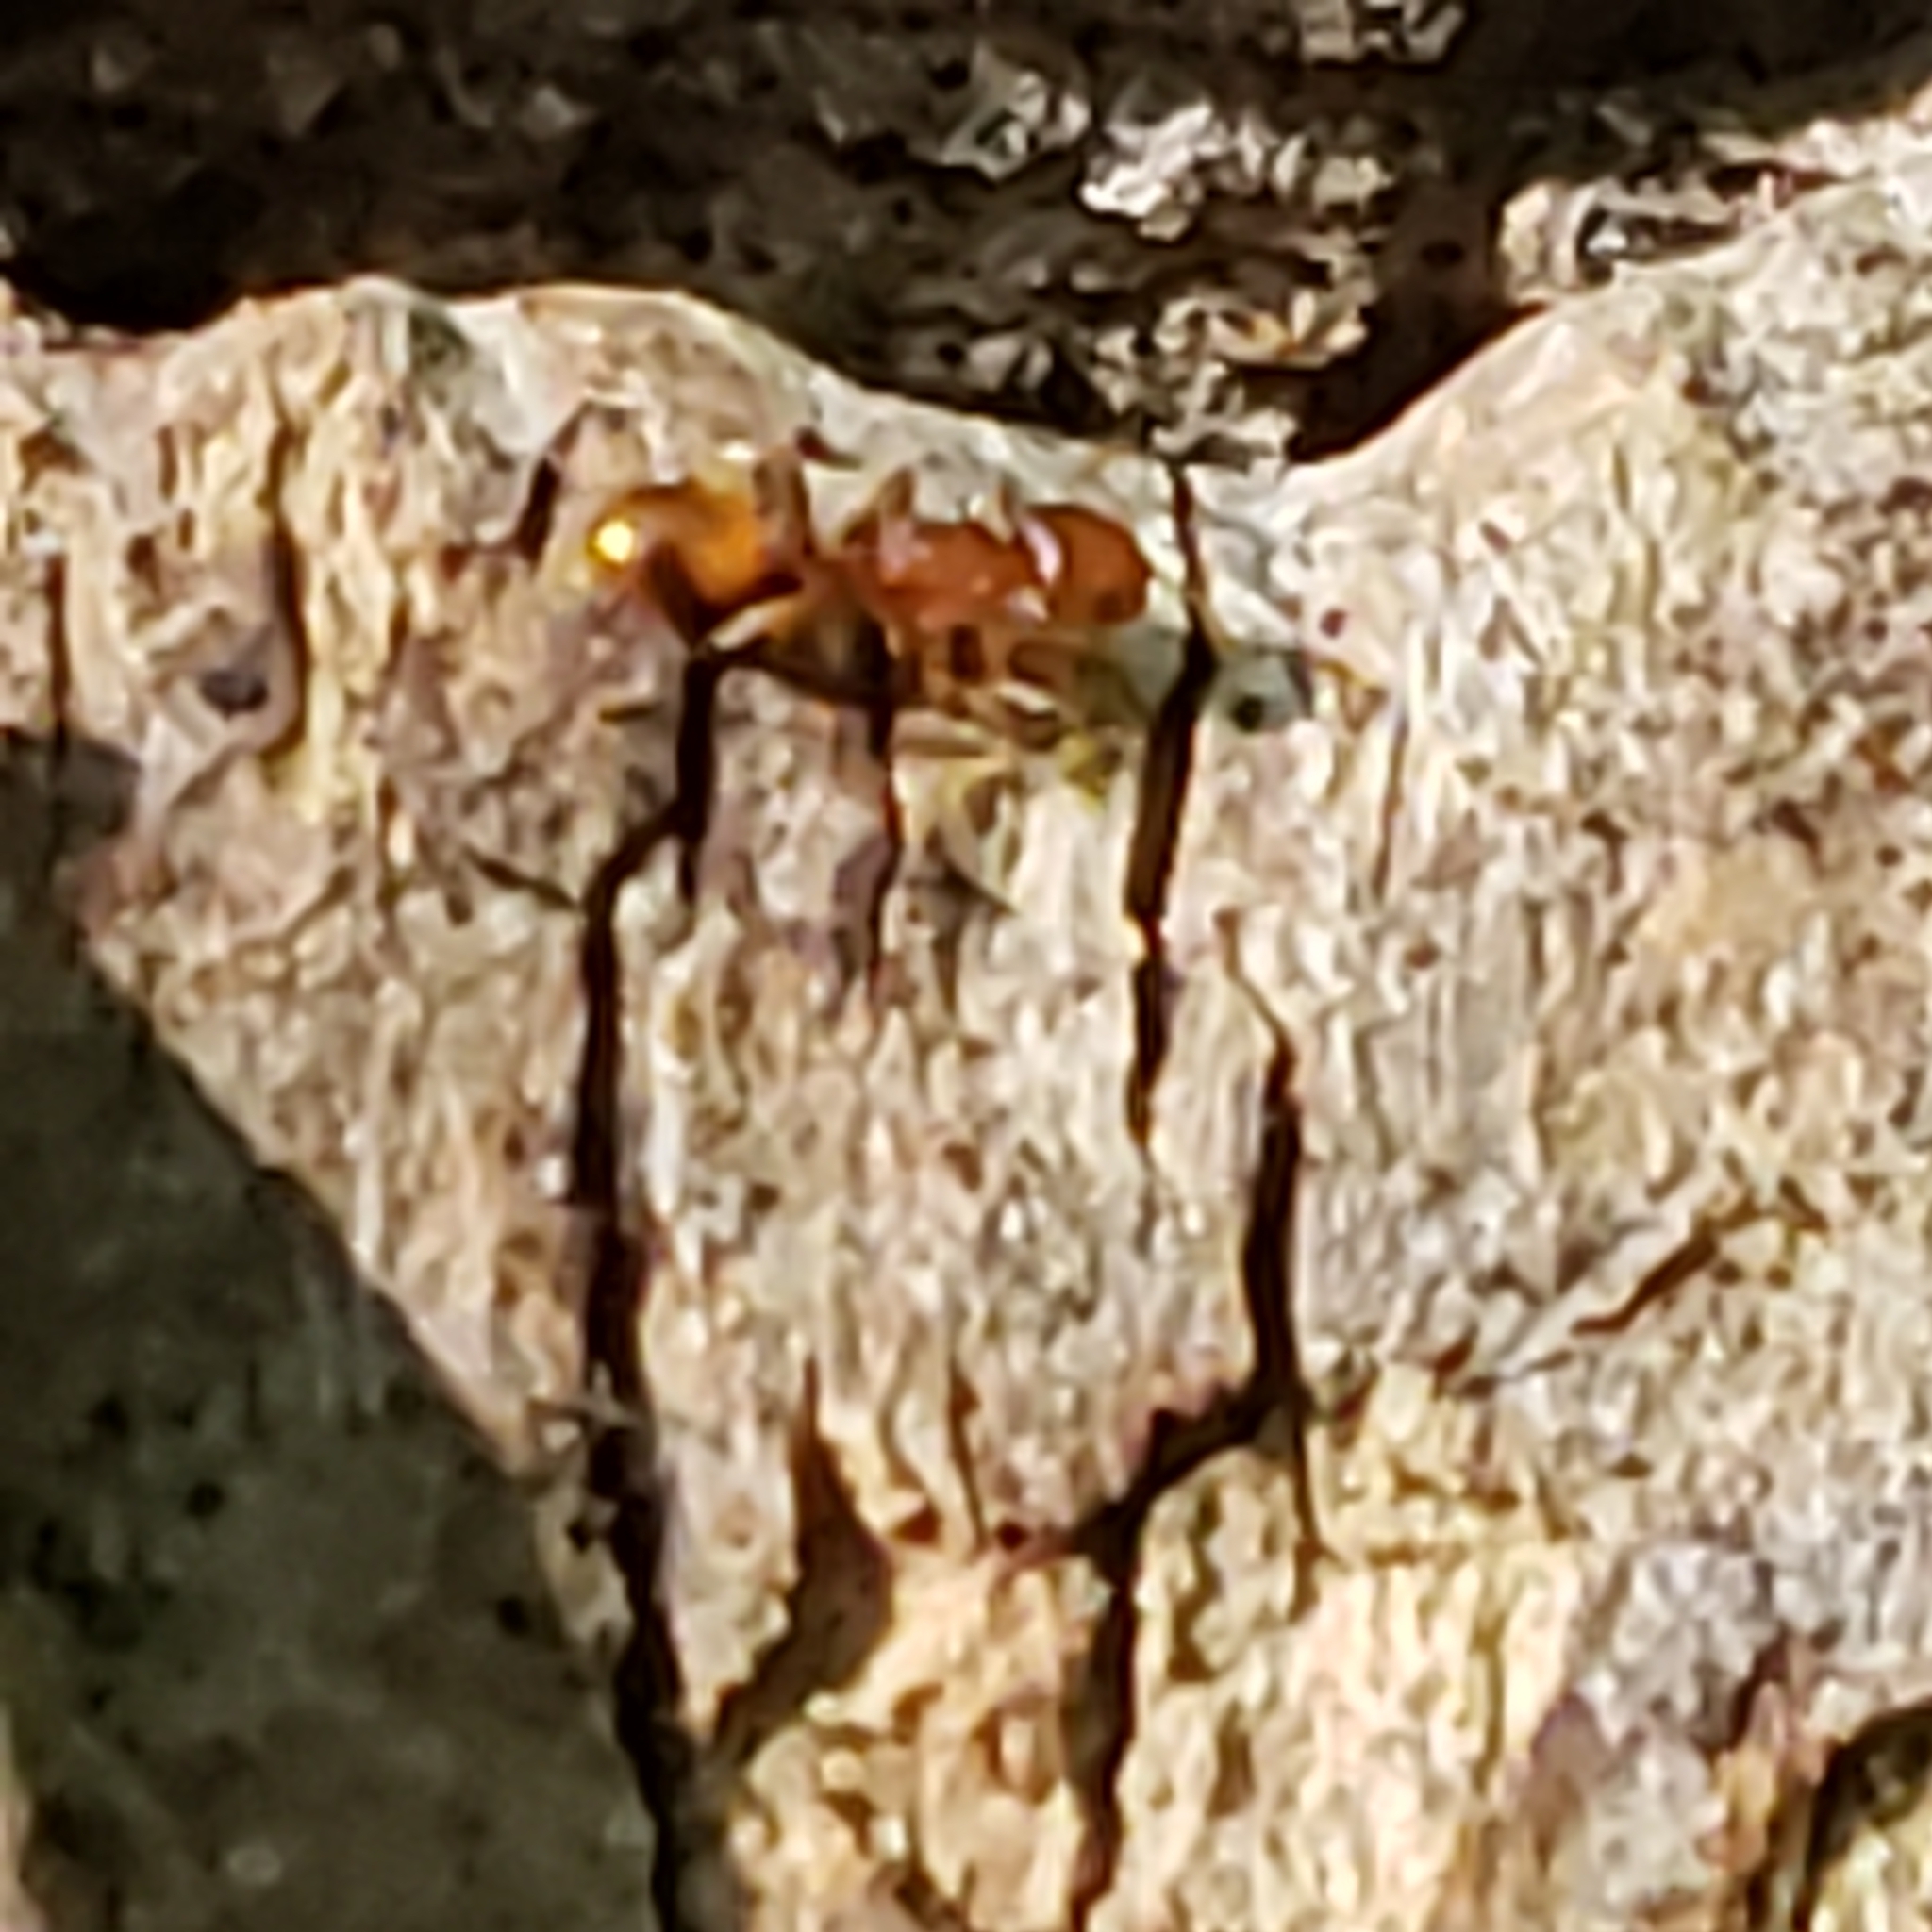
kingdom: Animalia
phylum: Arthropoda
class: Insecta
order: Hymenoptera
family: Formicidae
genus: Temnothorax
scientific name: Temnothorax curvispinosus
